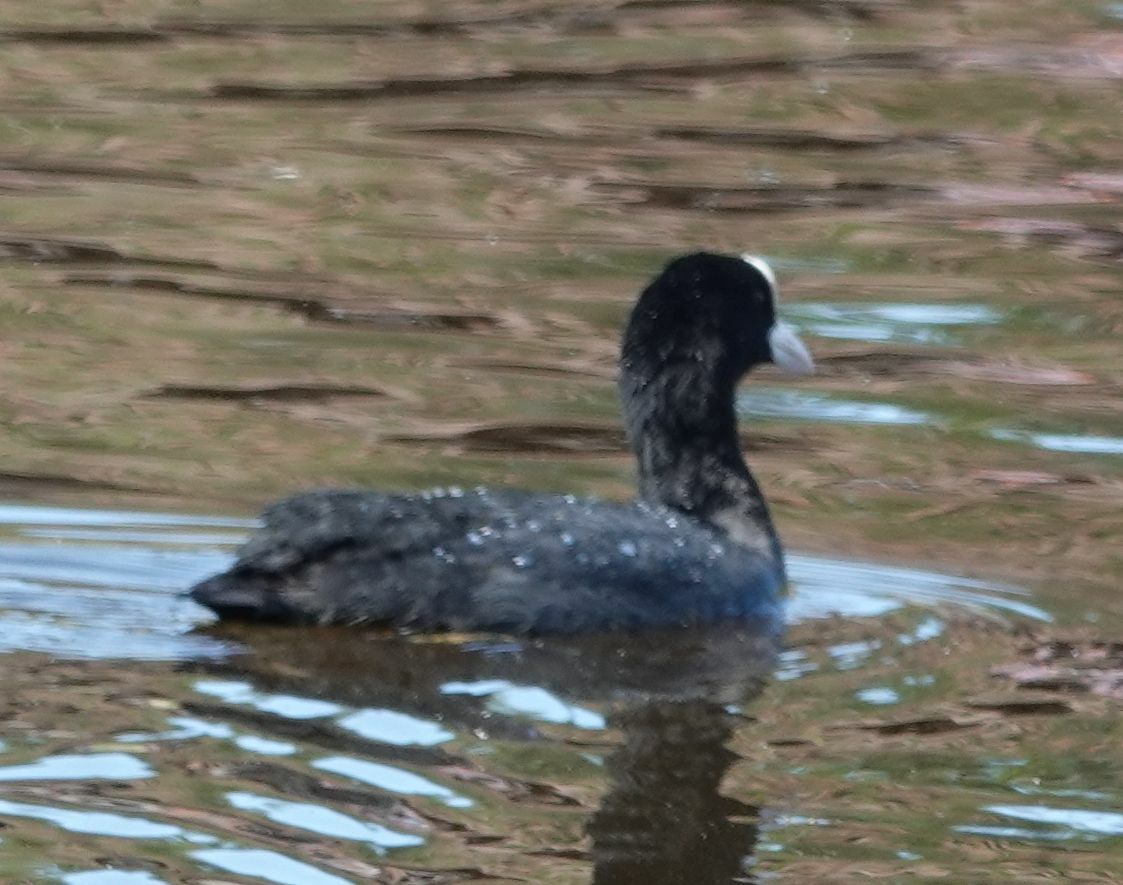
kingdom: Animalia
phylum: Chordata
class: Aves
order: Gruiformes
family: Rallidae
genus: Fulica
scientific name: Fulica atra
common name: Eurasian coot
